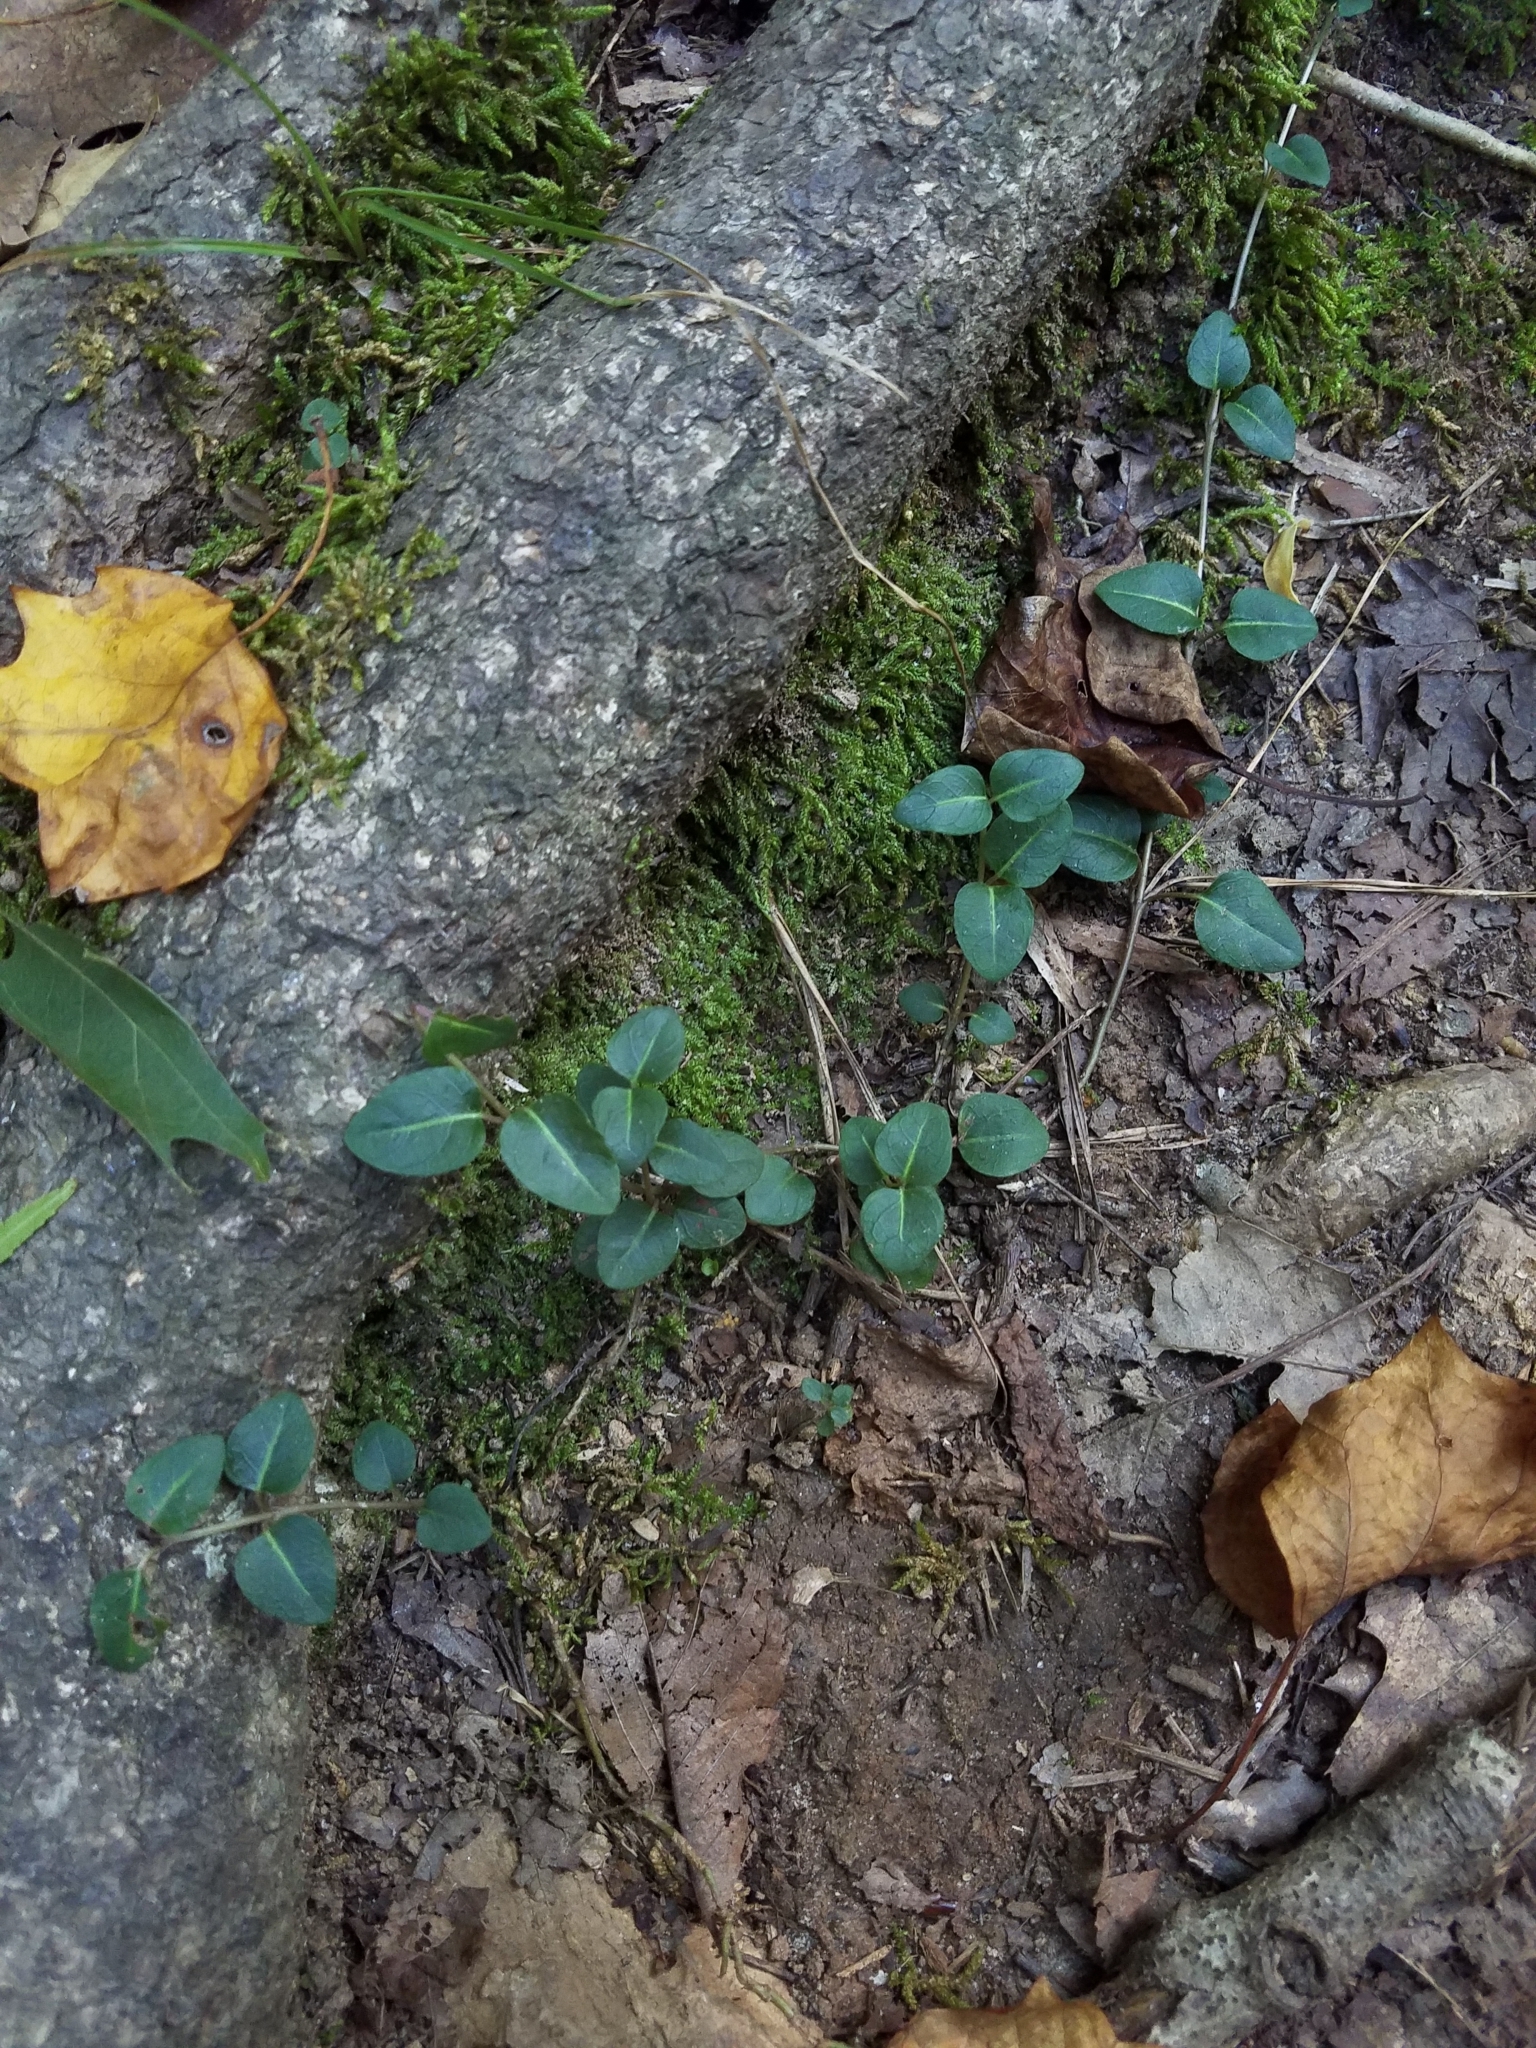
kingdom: Plantae
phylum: Tracheophyta
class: Magnoliopsida
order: Gentianales
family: Rubiaceae
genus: Mitchella
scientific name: Mitchella repens
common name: Partridge-berry
